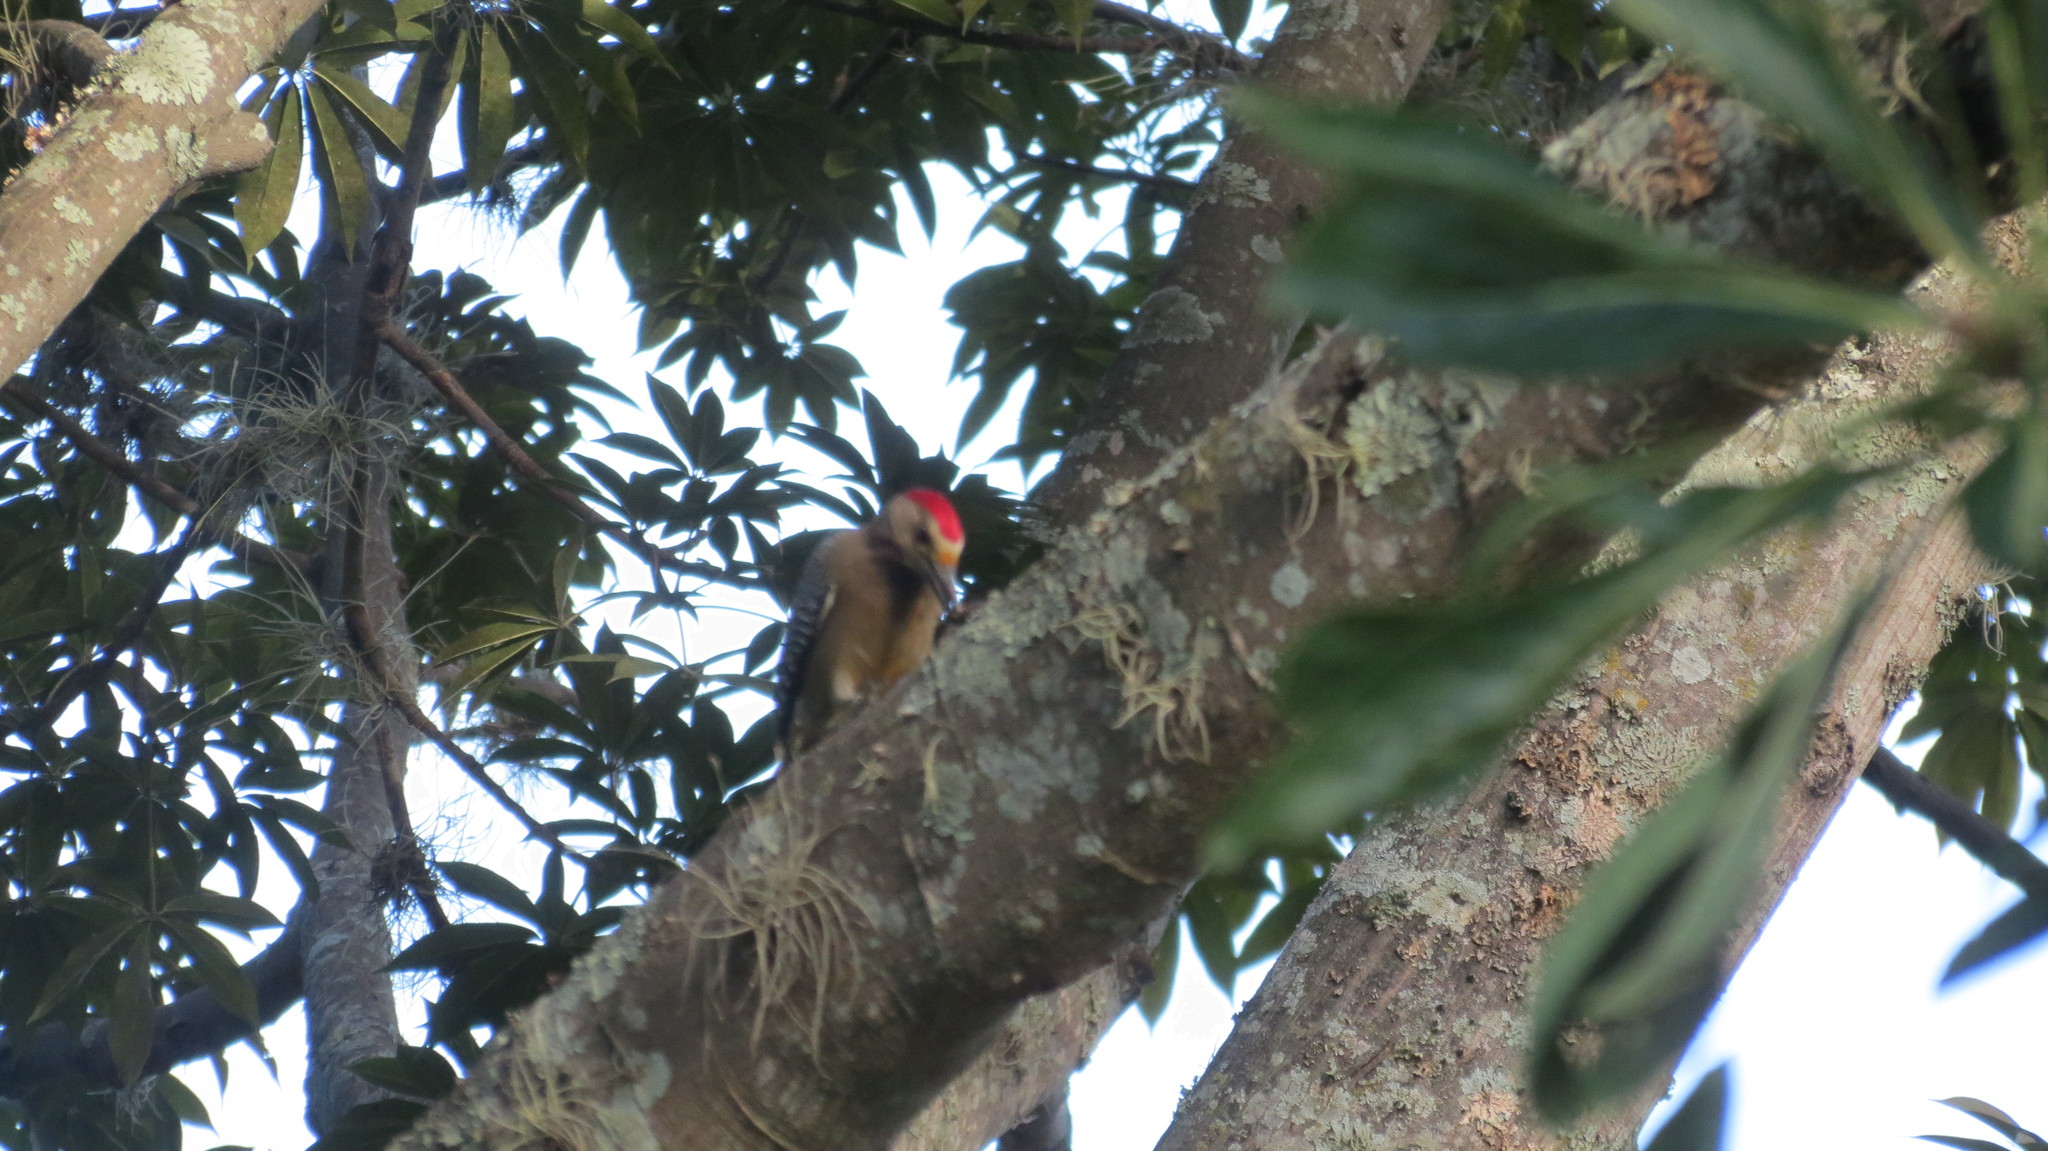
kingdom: Animalia
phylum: Chordata
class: Aves
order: Piciformes
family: Picidae
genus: Melanerpes
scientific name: Melanerpes aurifrons
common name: Golden-fronted woodpecker
